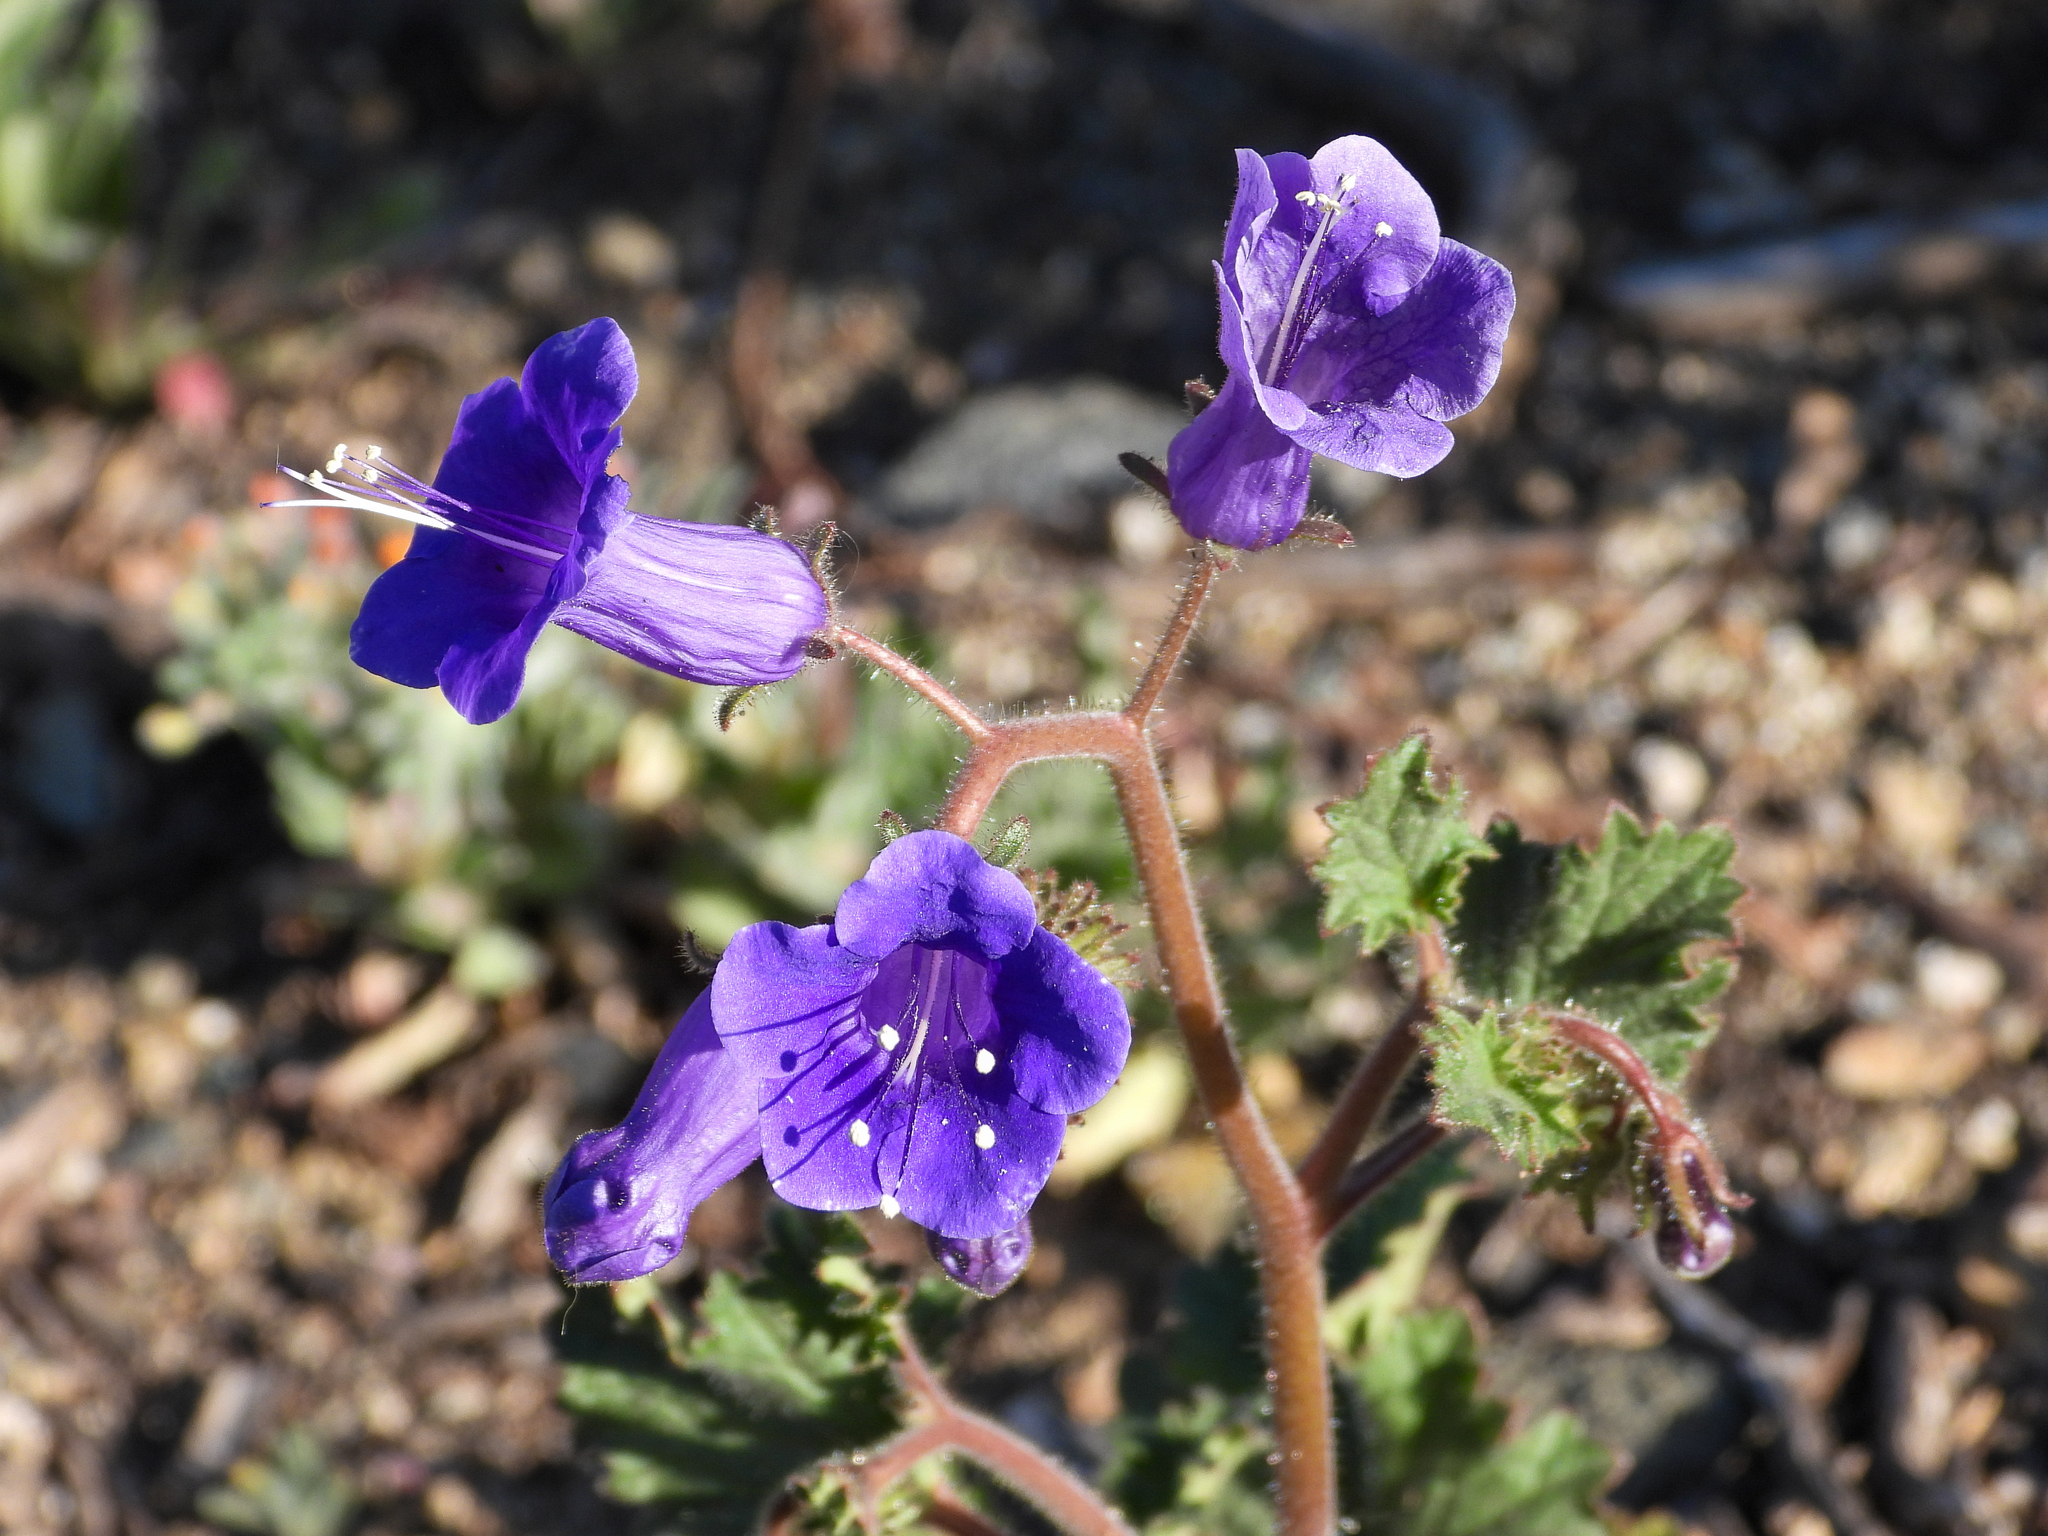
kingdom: Plantae
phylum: Tracheophyta
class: Magnoliopsida
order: Boraginales
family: Hydrophyllaceae
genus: Phacelia
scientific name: Phacelia minor
